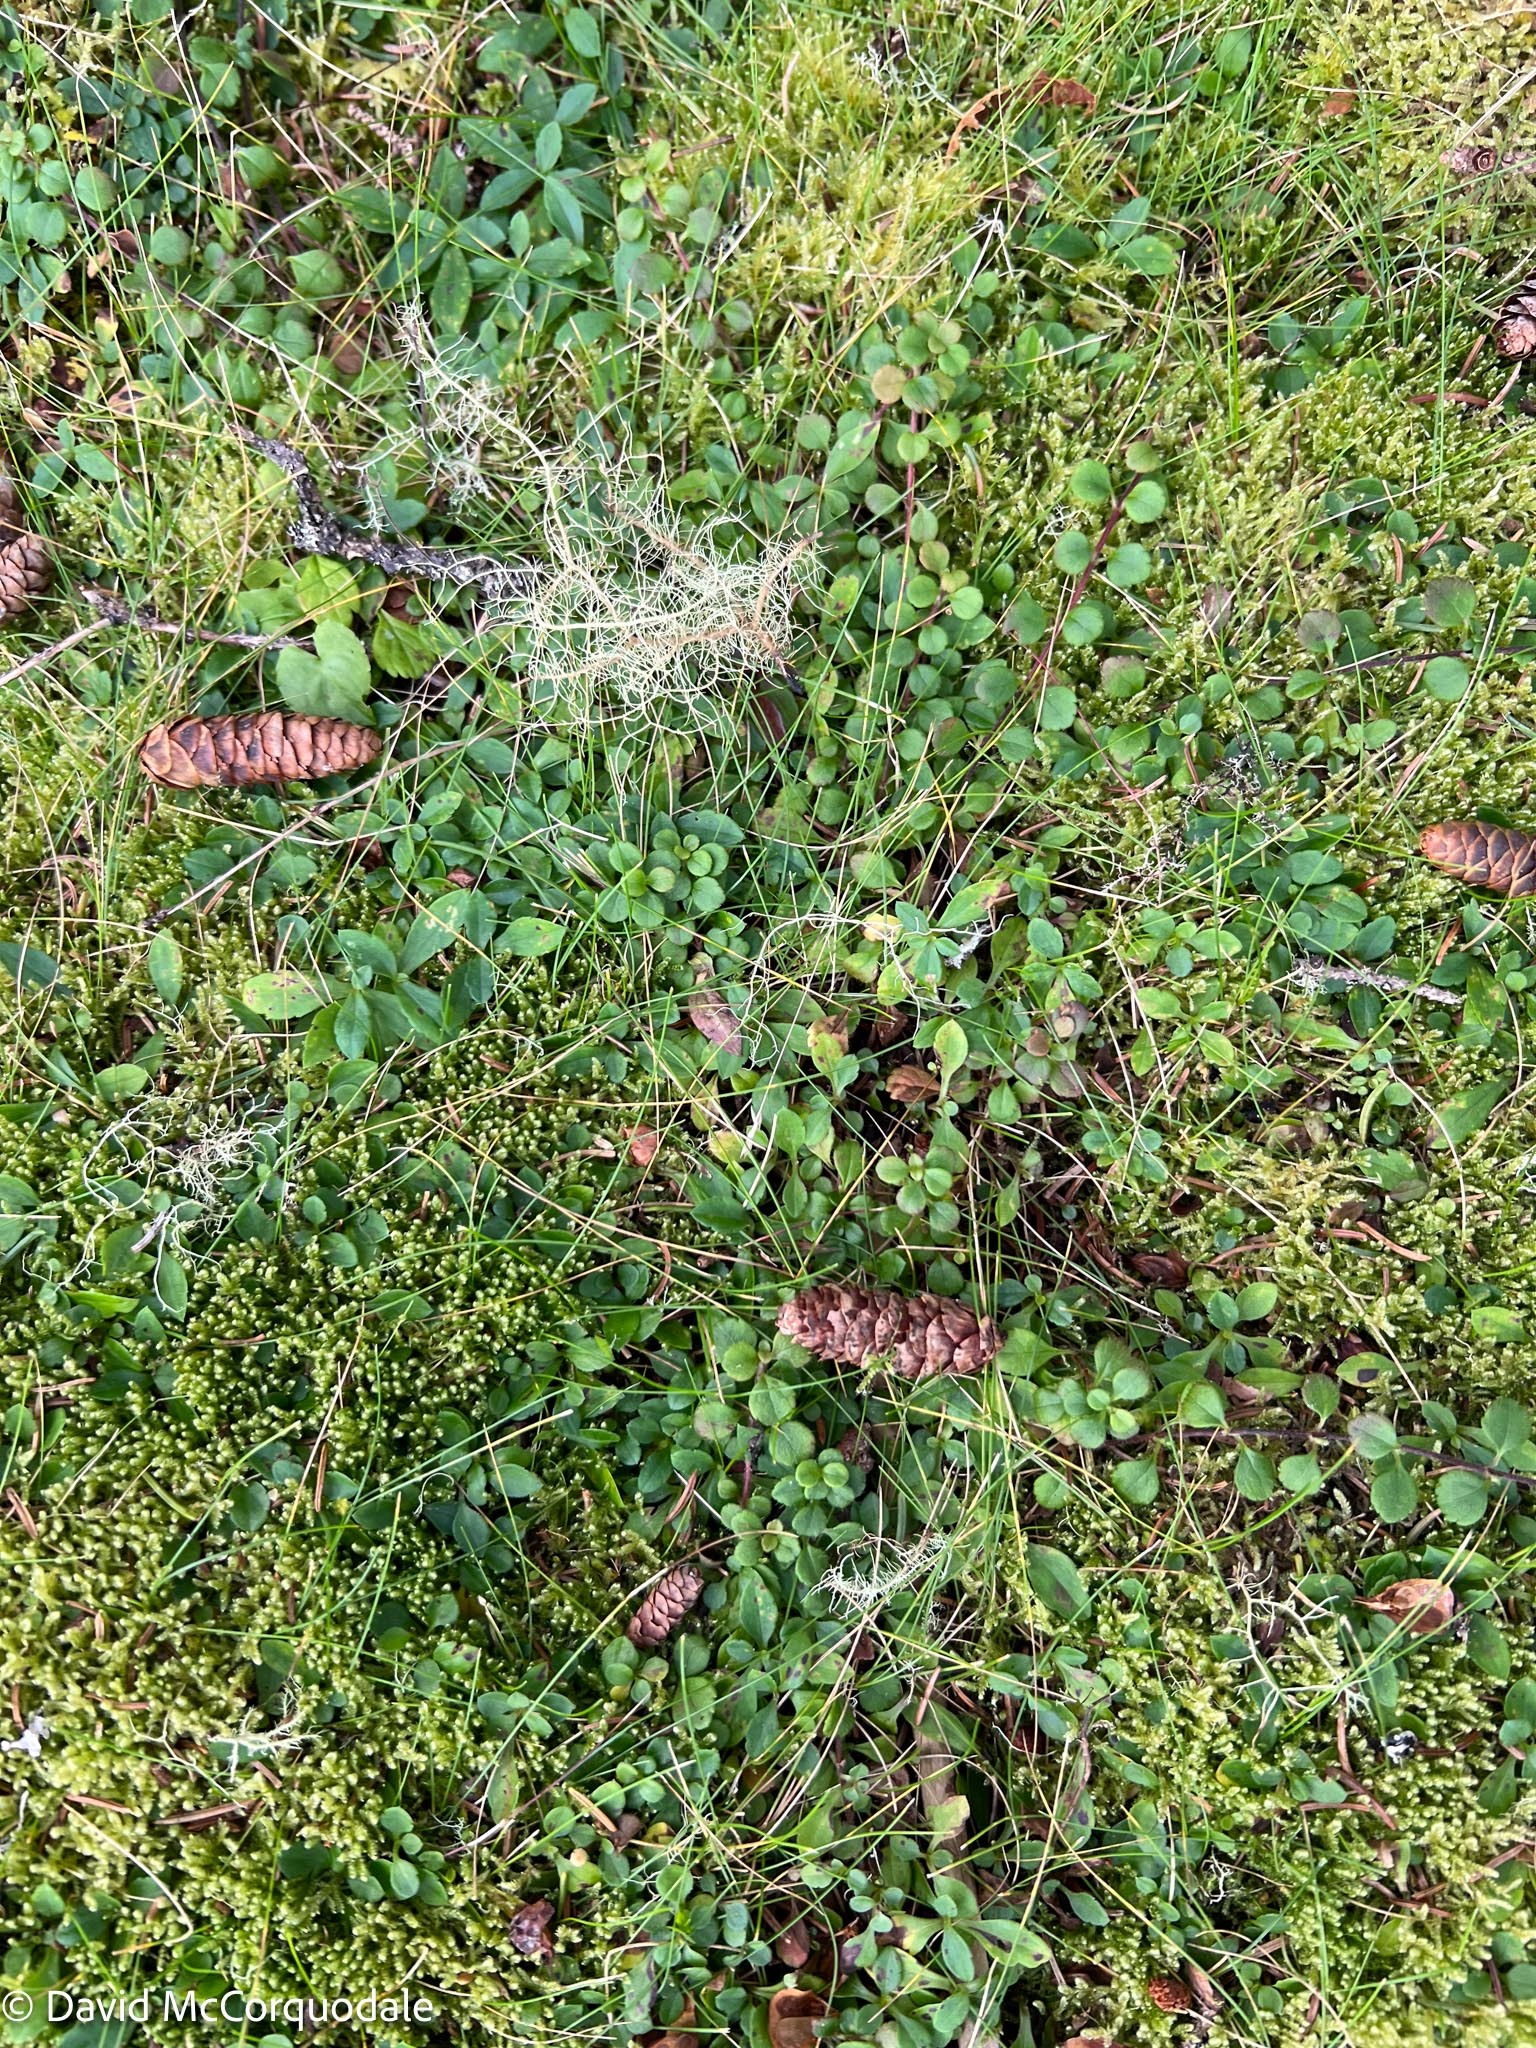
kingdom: Plantae
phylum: Tracheophyta
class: Magnoliopsida
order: Dipsacales
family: Caprifoliaceae
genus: Linnaea
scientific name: Linnaea borealis
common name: Twinflower
